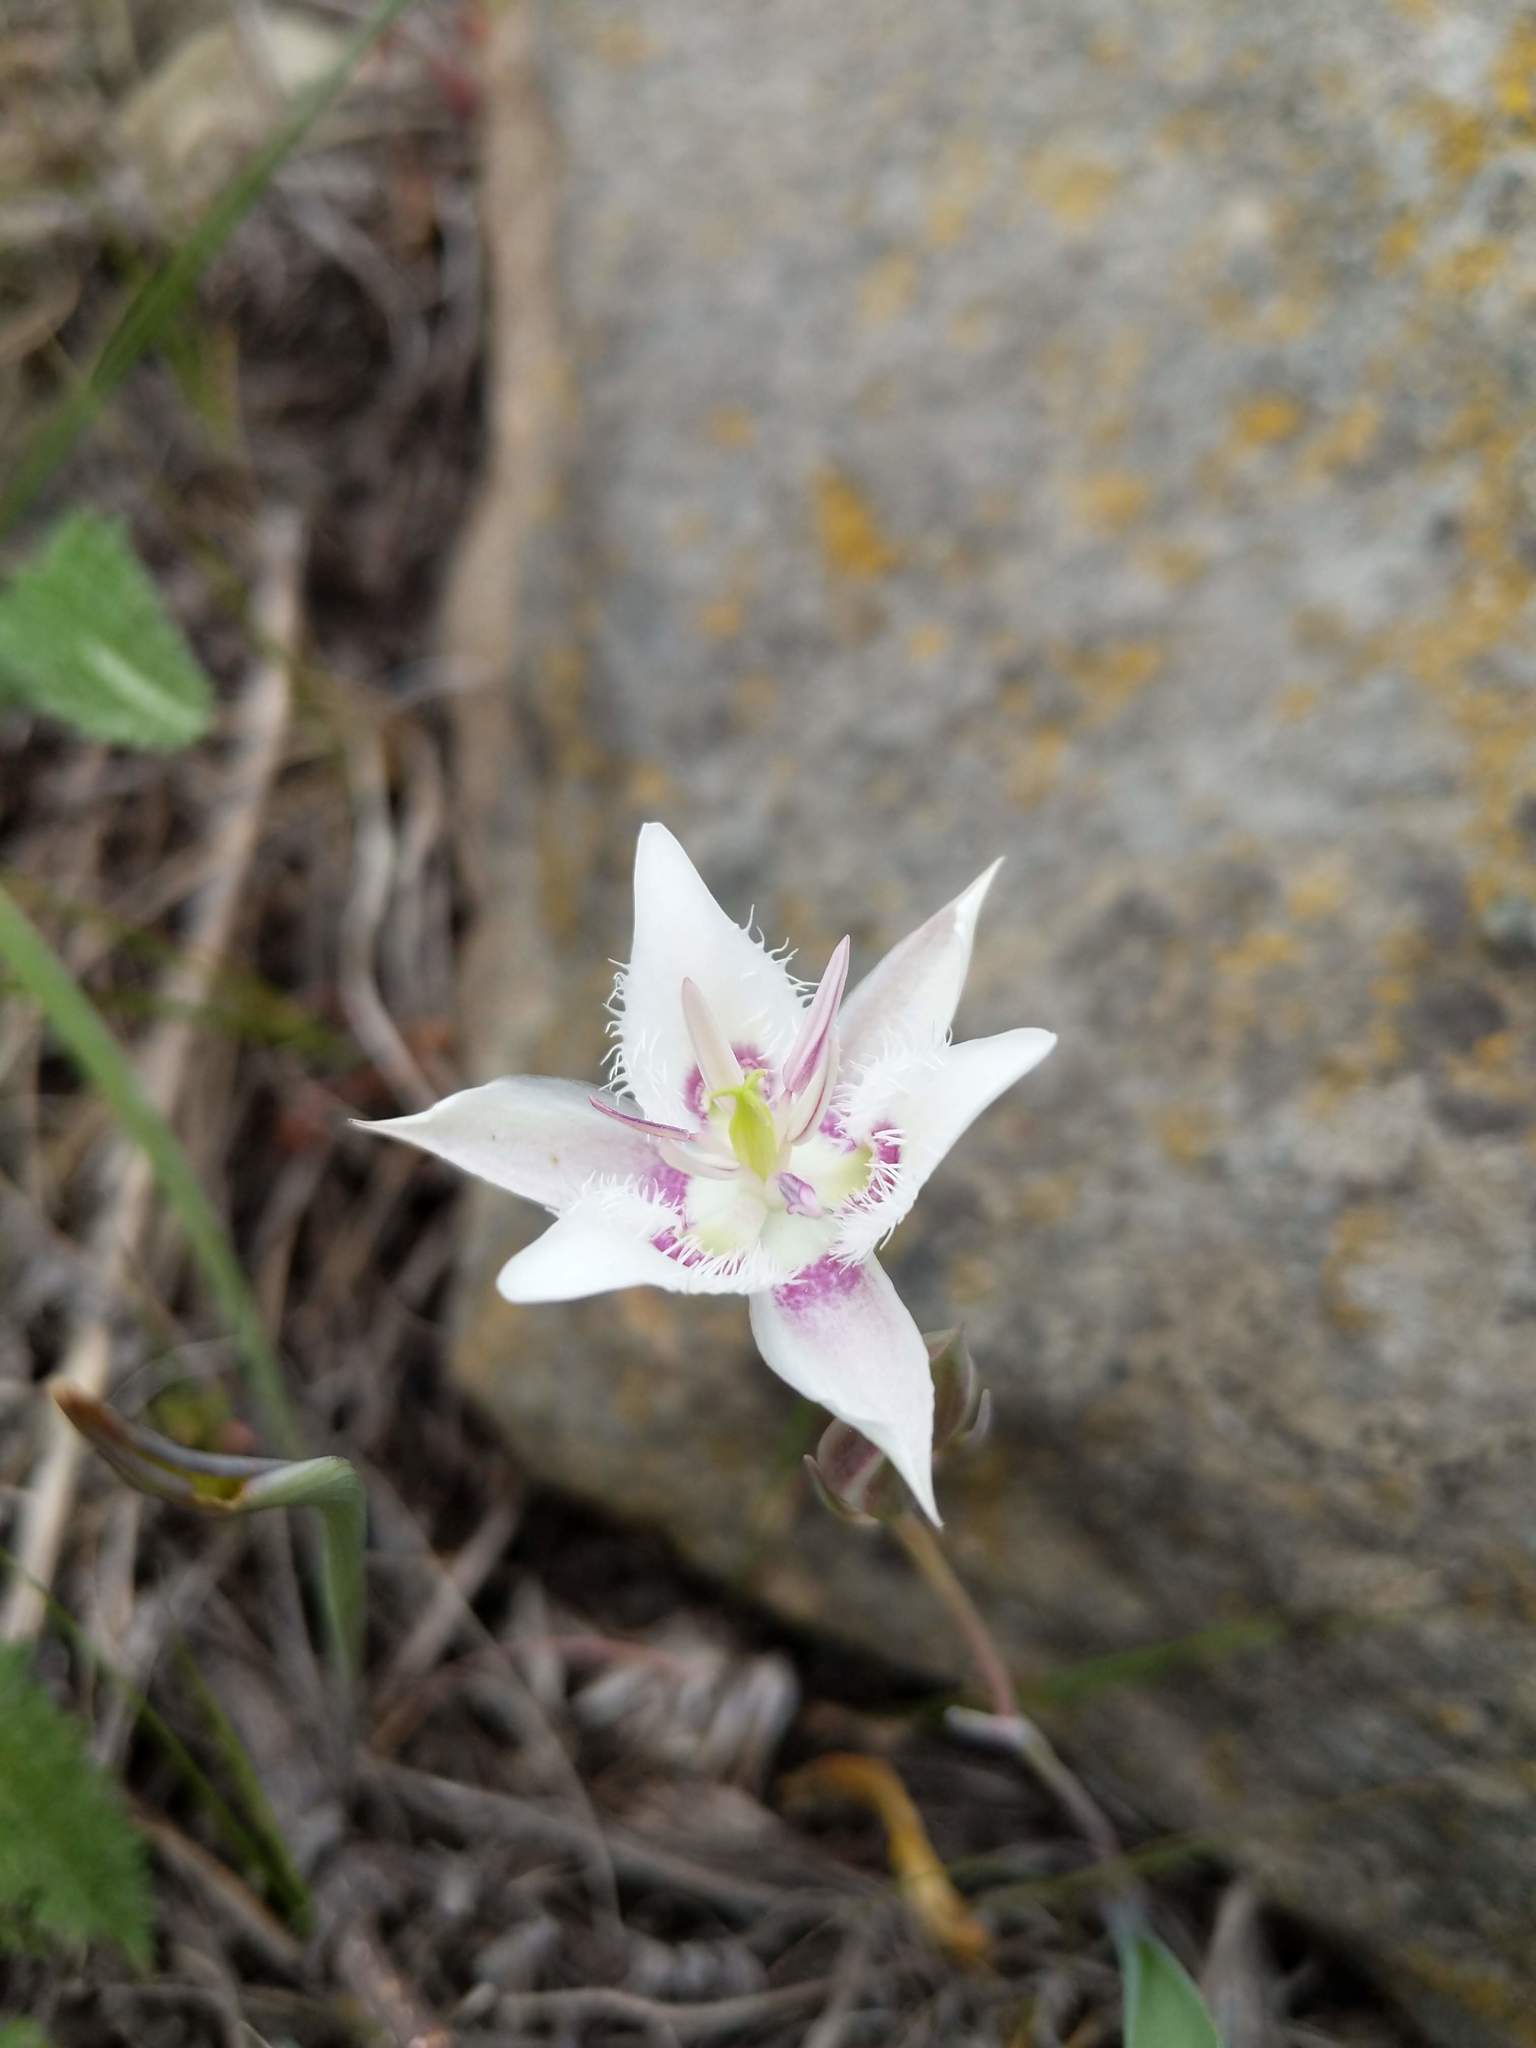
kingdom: Plantae
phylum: Tracheophyta
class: Liliopsida
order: Liliales
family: Liliaceae
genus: Calochortus
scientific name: Calochortus lyallii
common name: Lyall's mariposa lily
